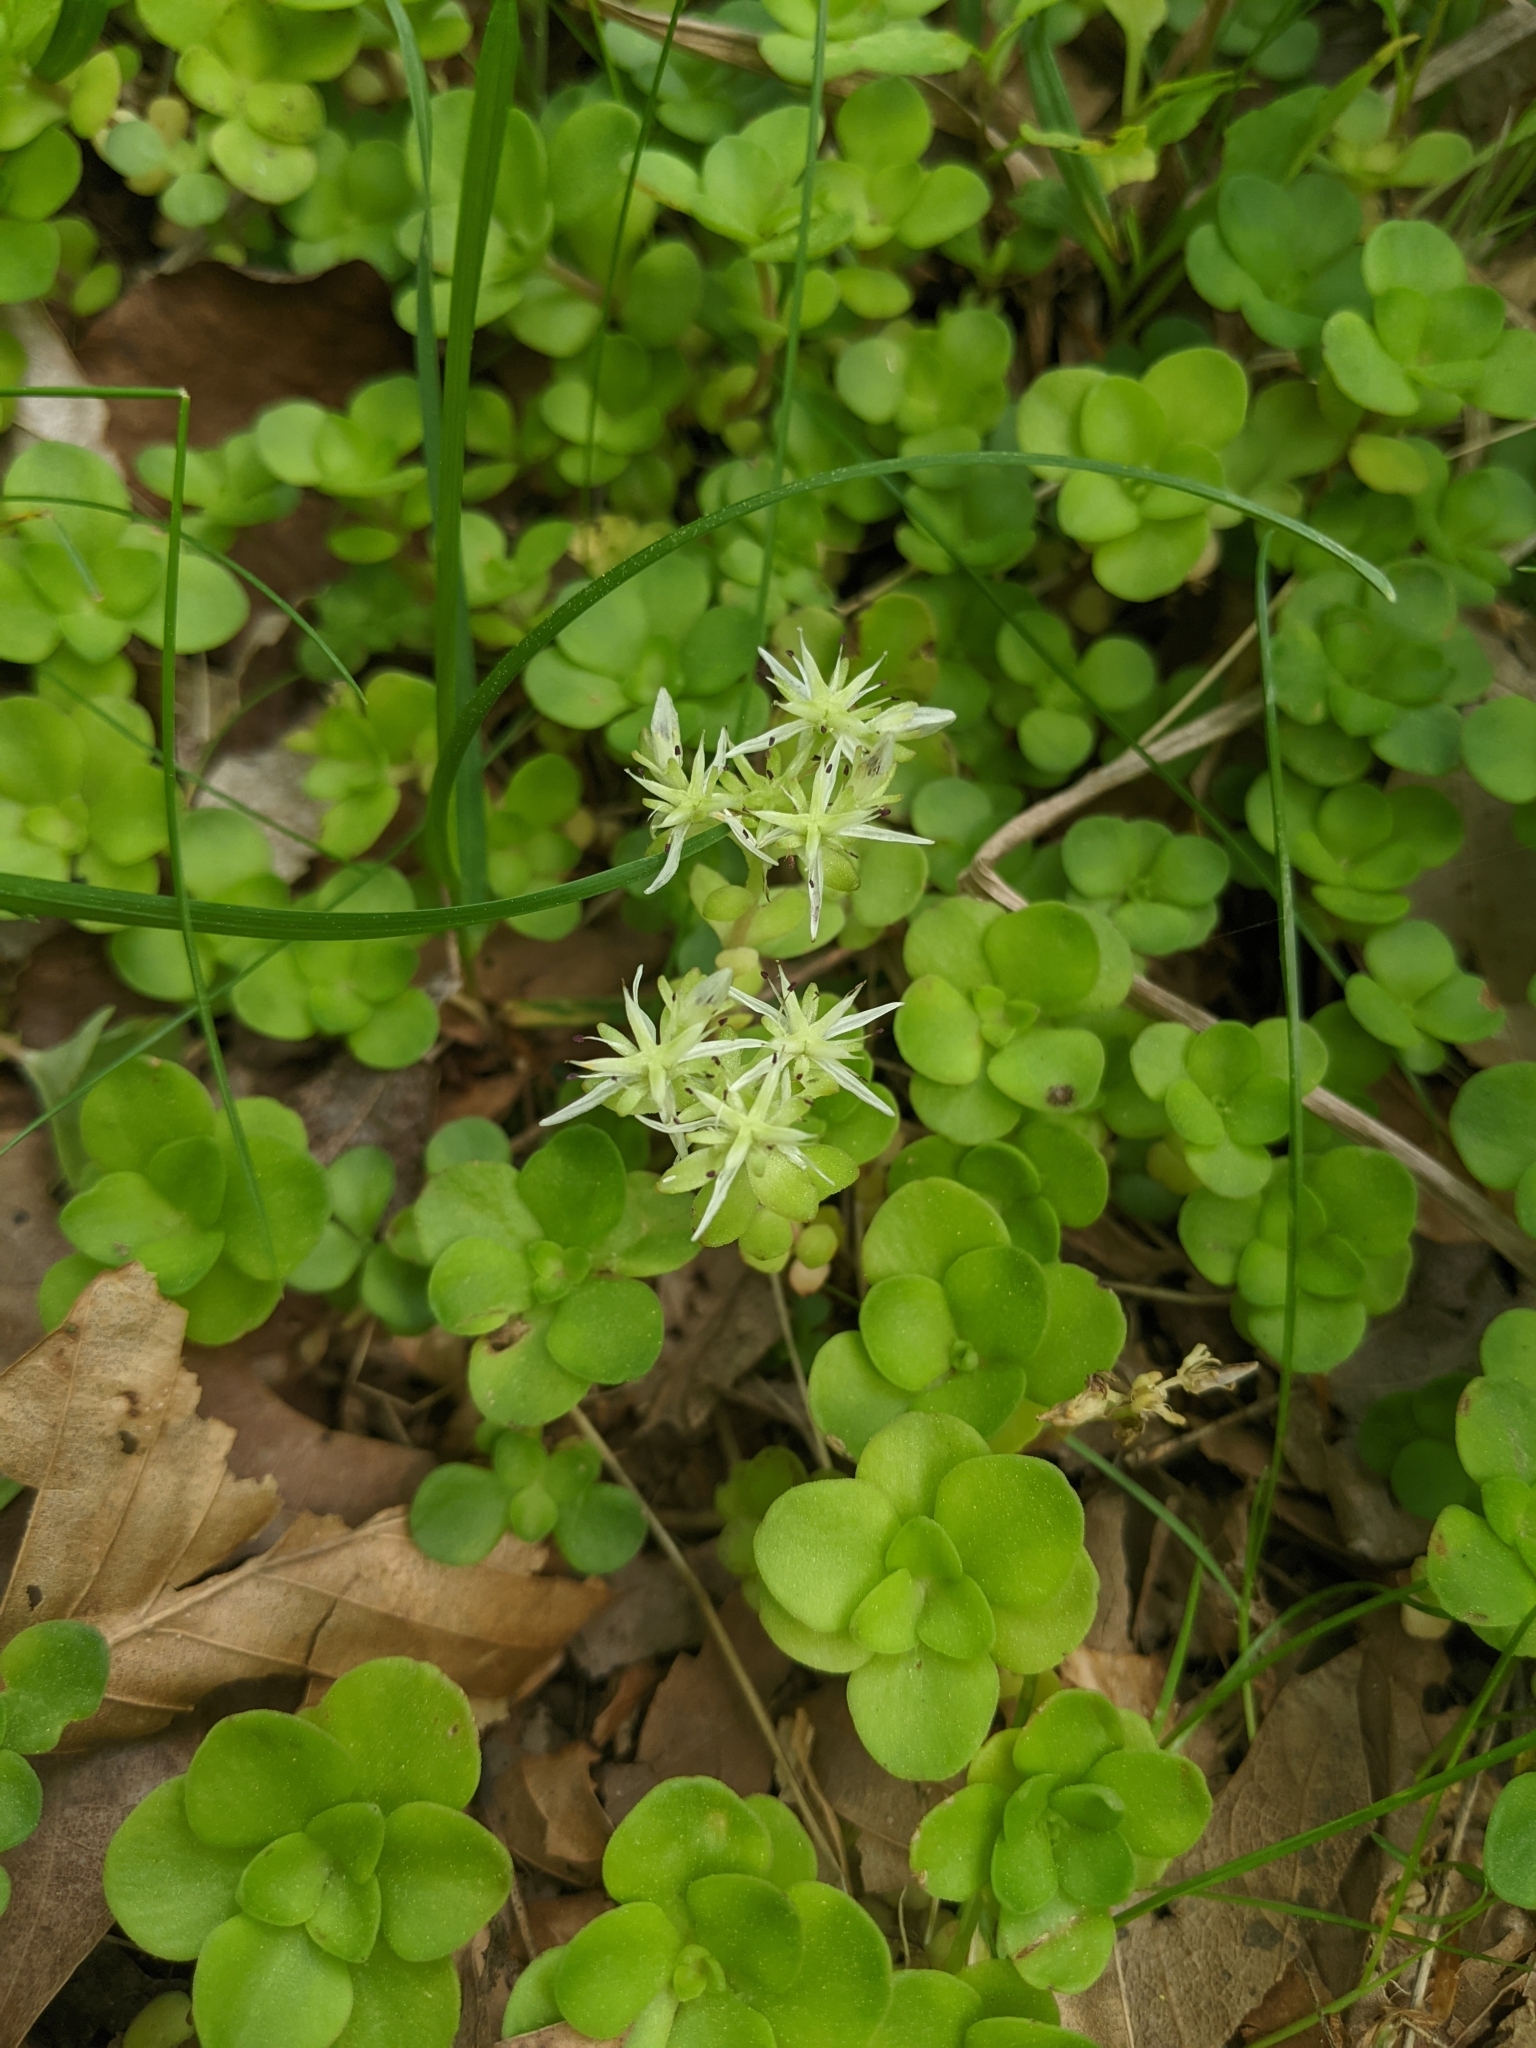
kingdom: Plantae
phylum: Tracheophyta
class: Magnoliopsida
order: Saxifragales
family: Crassulaceae
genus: Sedum
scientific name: Sedum ternatum
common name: Wild stonecrop
